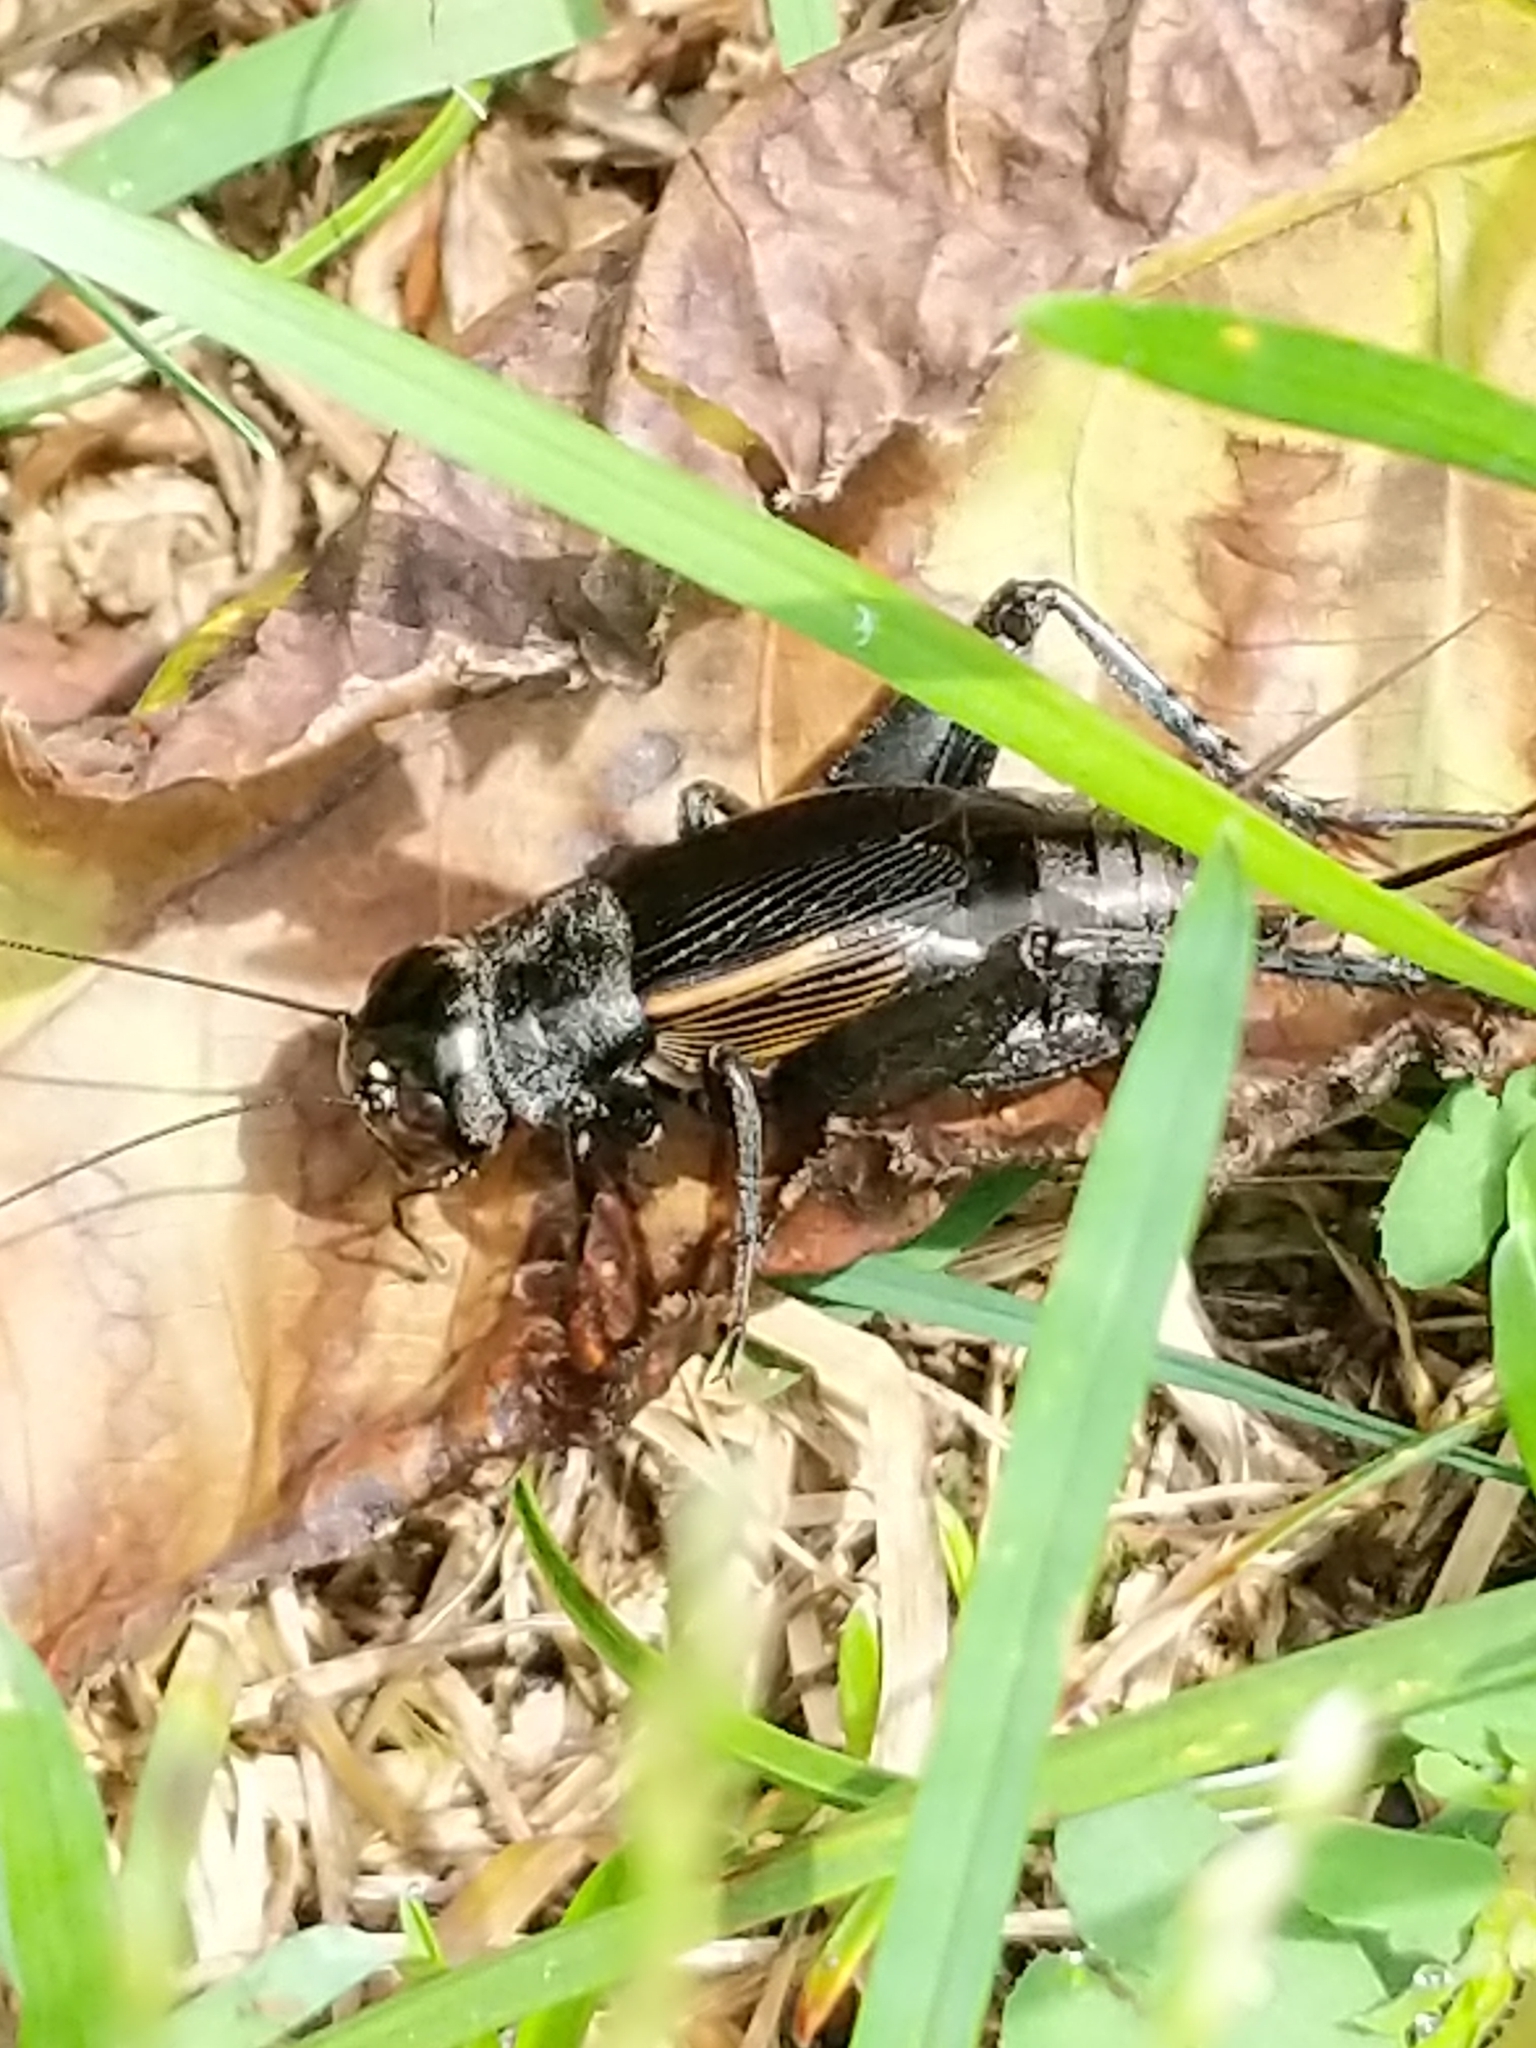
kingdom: Animalia
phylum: Arthropoda
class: Insecta
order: Orthoptera
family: Gryllidae
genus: Gryllus
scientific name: Gryllus pennsylvanicus
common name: Fall field cricket
